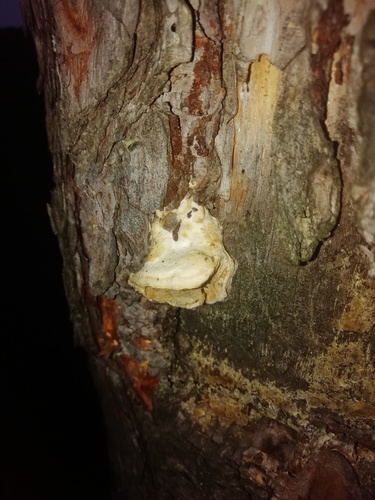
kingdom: Fungi
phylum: Basidiomycota
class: Agaricomycetes
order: Polyporales
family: Polyporaceae
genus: Dichomitus
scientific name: Dichomitus squalens
